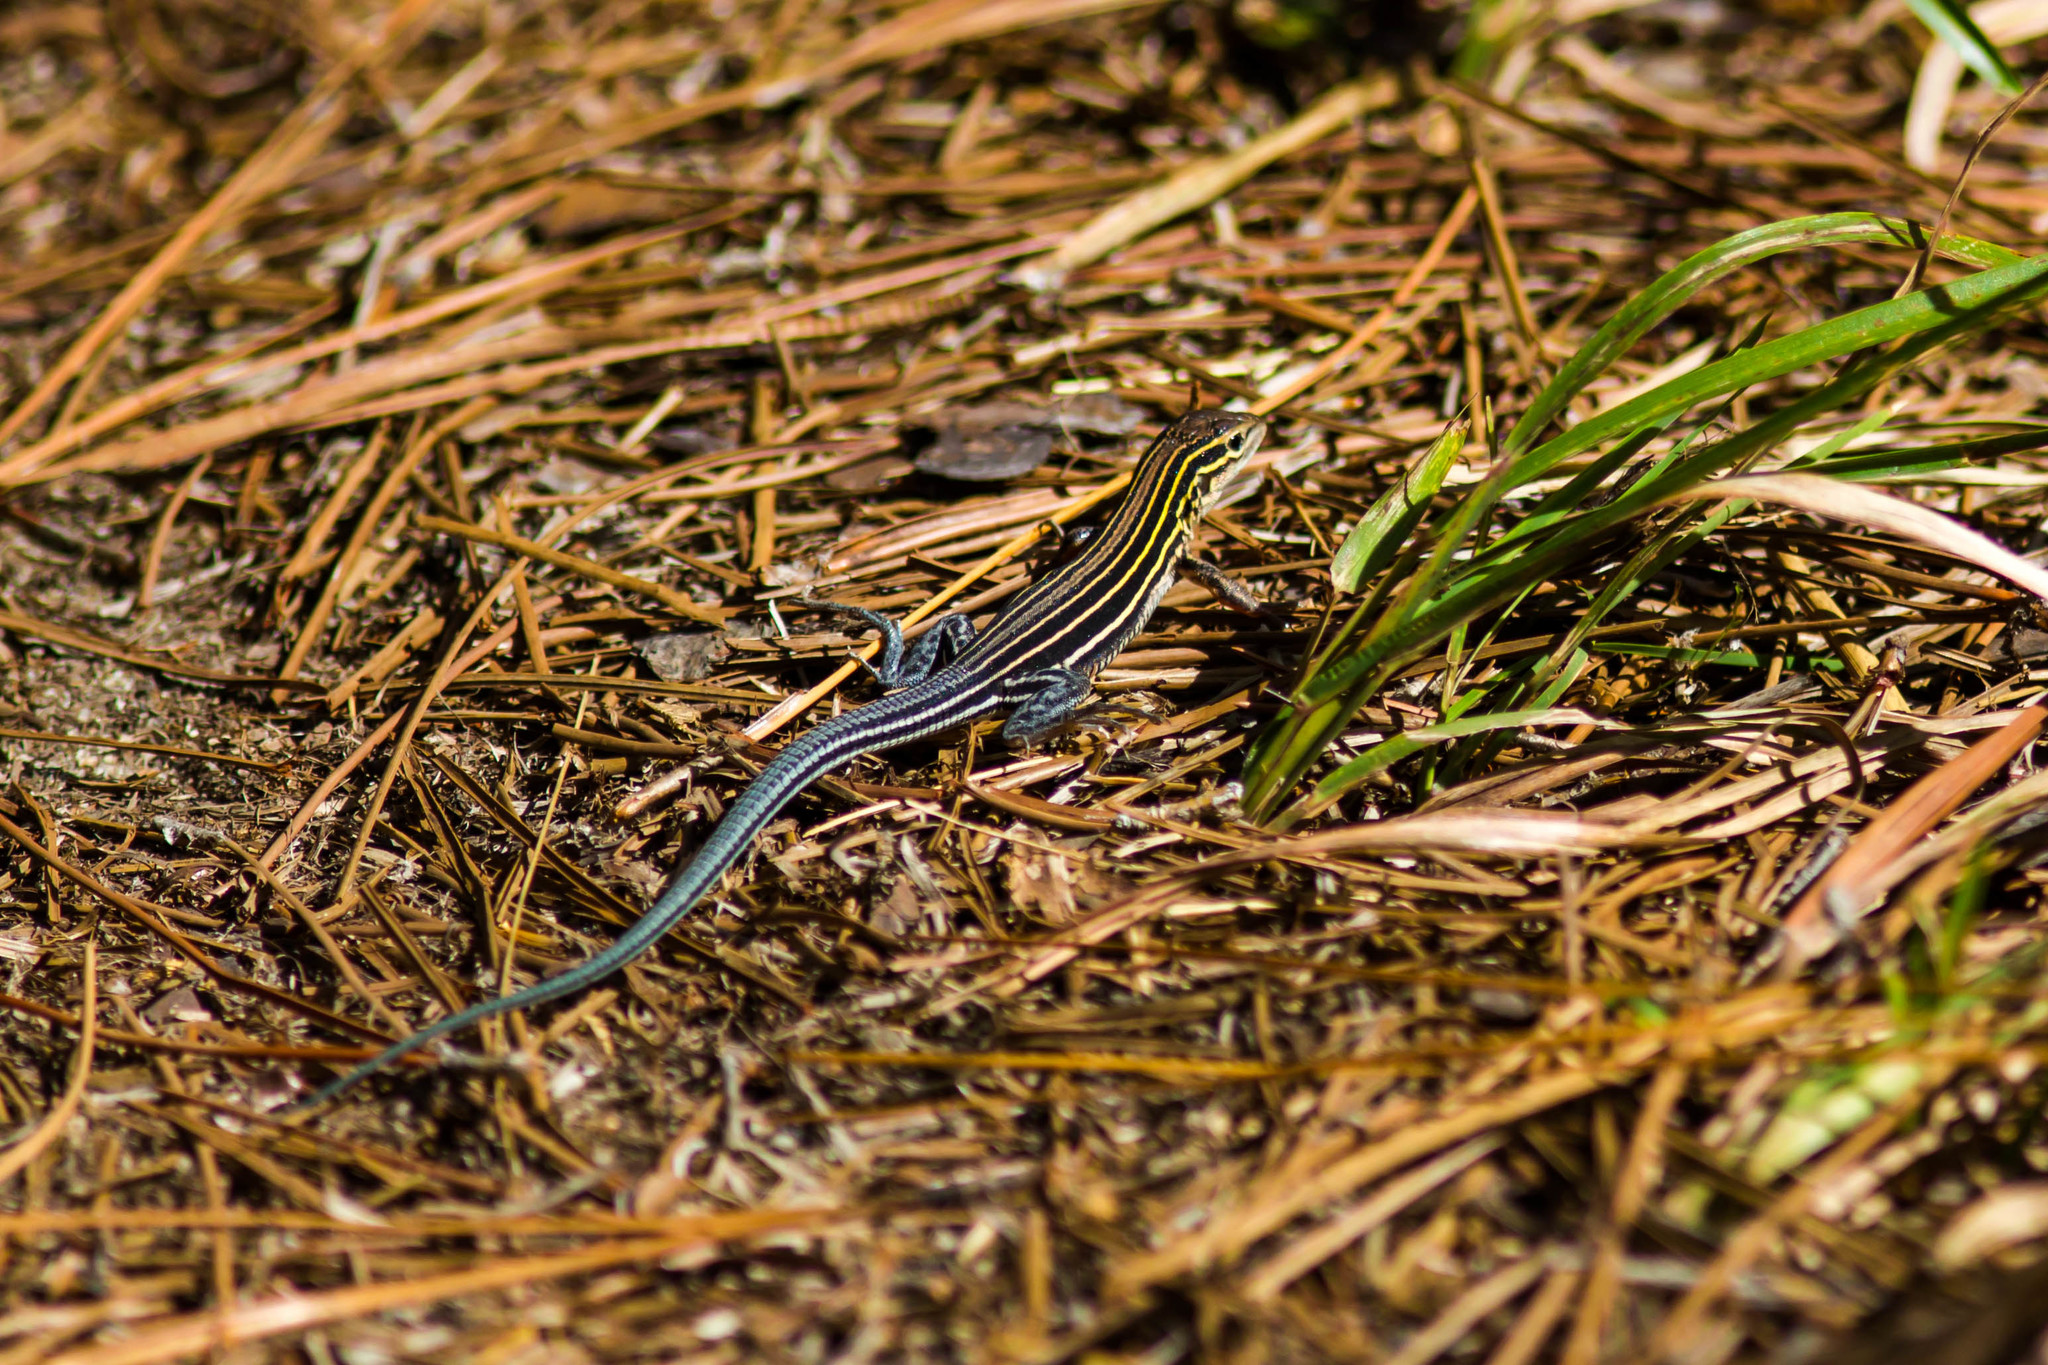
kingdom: Animalia
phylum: Chordata
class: Squamata
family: Teiidae
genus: Aspidoscelis
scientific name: Aspidoscelis sexlineatus
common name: Six-lined racerunner
